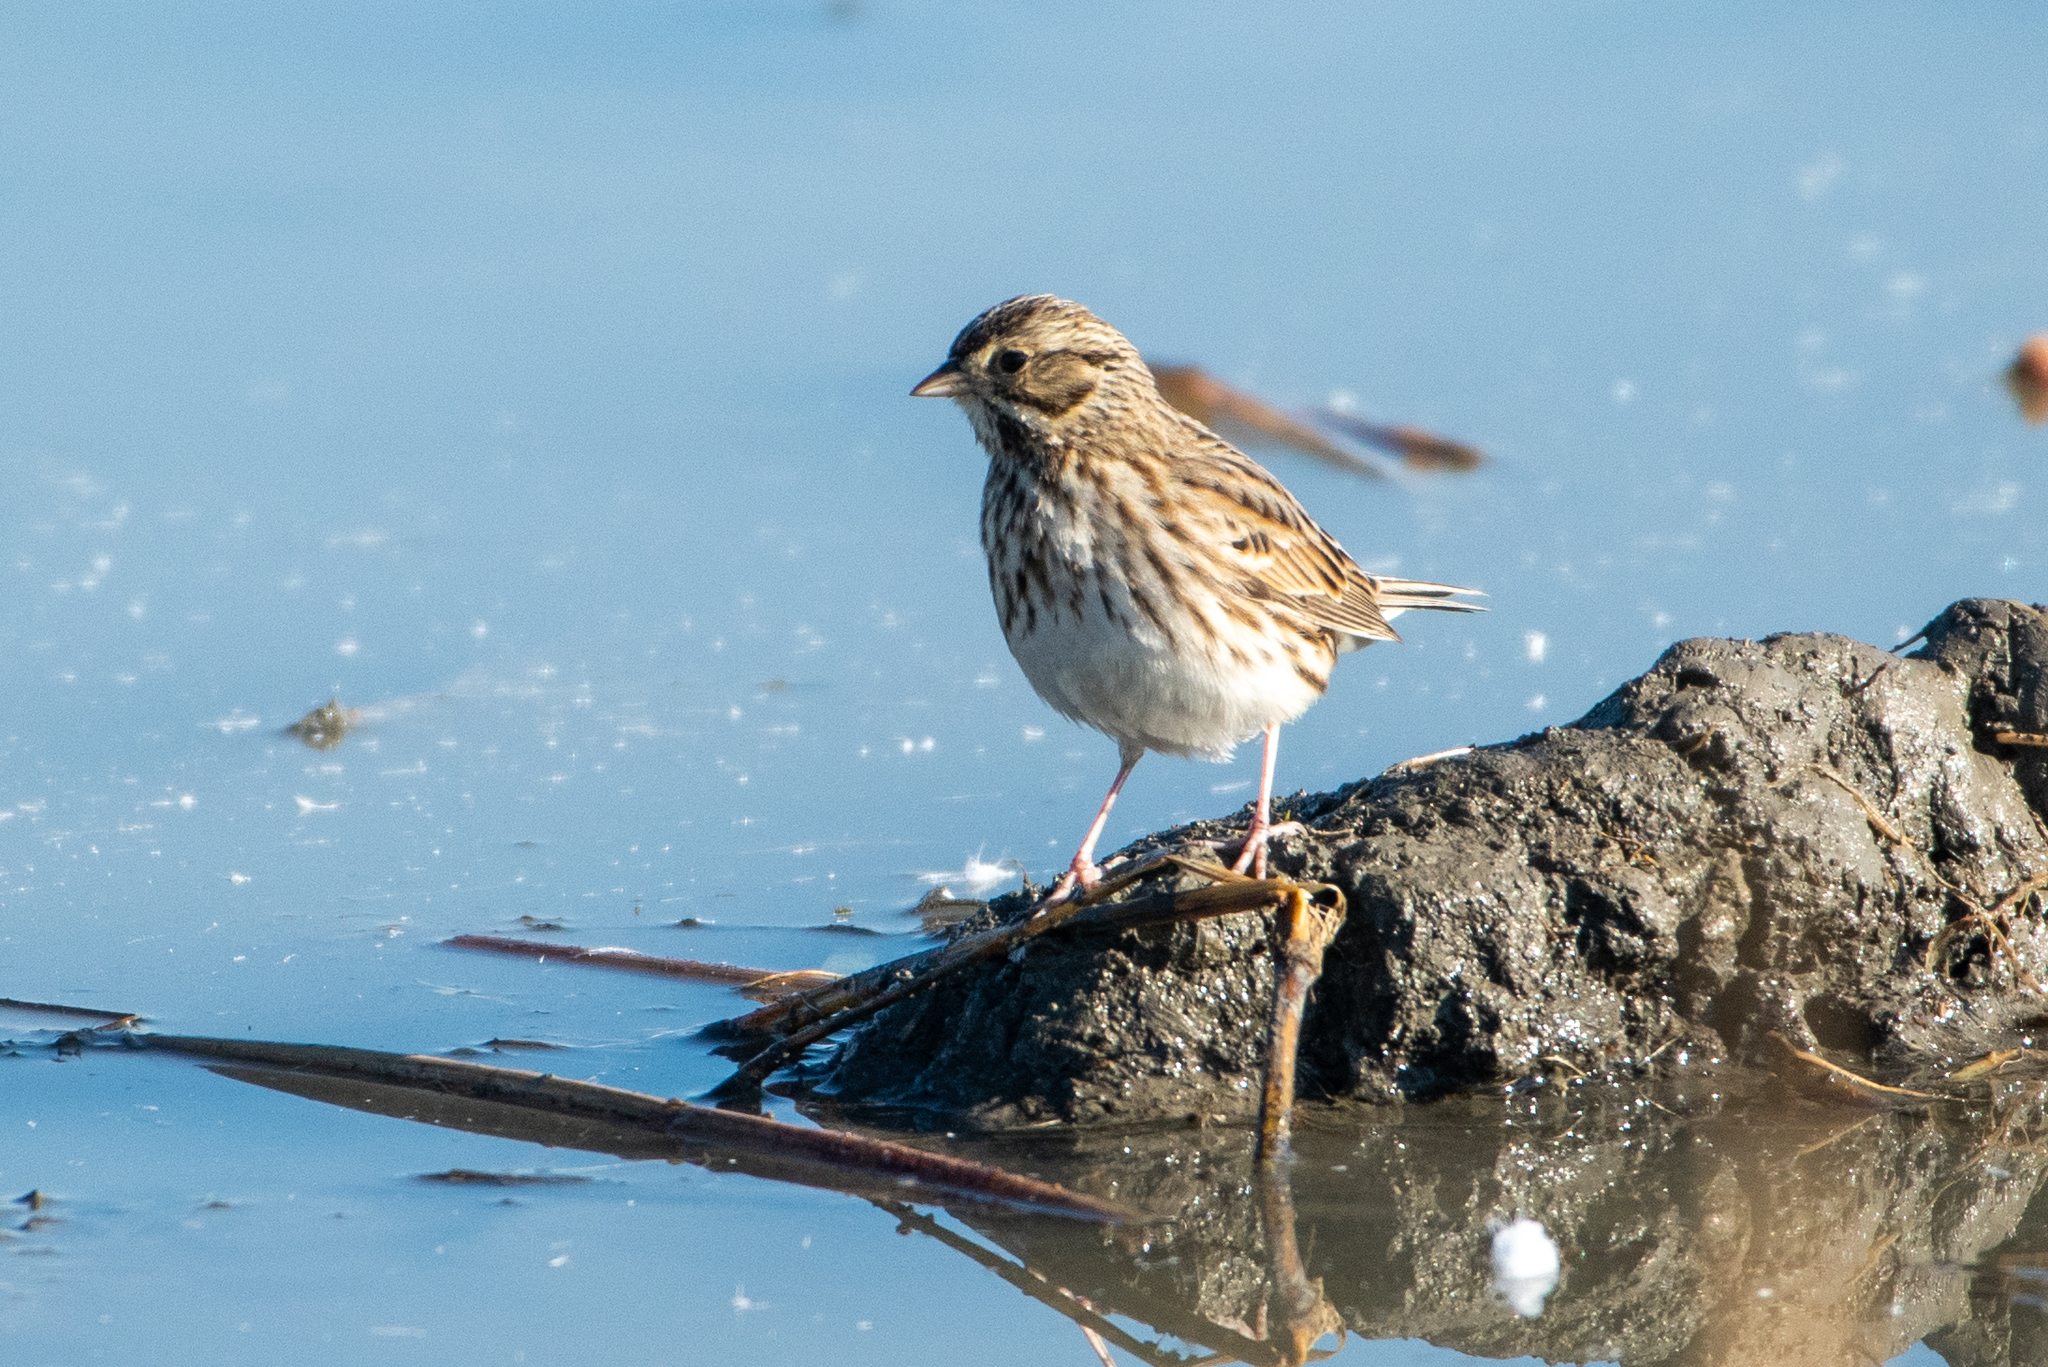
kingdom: Animalia
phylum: Chordata
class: Aves
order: Passeriformes
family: Passerellidae
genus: Passerculus
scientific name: Passerculus sandwichensis
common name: Savannah sparrow
